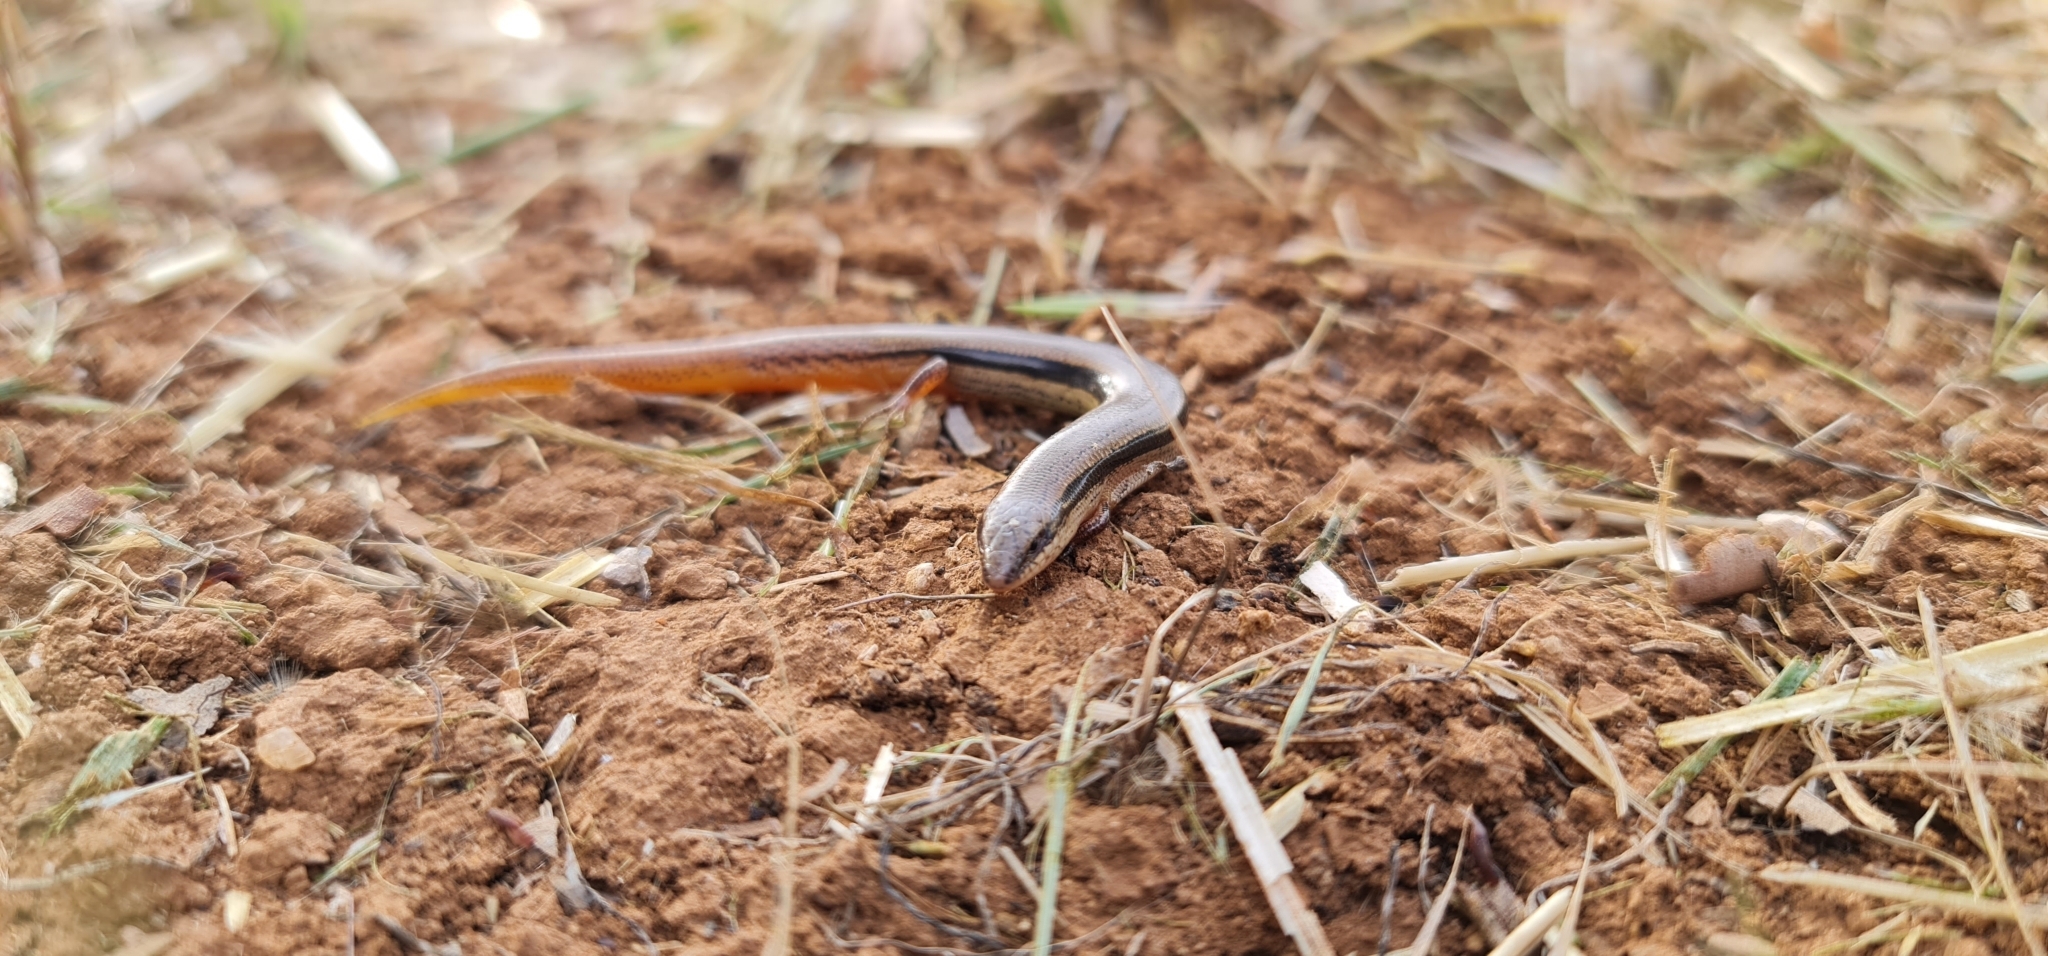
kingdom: Animalia
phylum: Chordata
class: Squamata
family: Scincidae
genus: Lerista
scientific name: Lerista bougainvillii
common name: South-eastern slider
